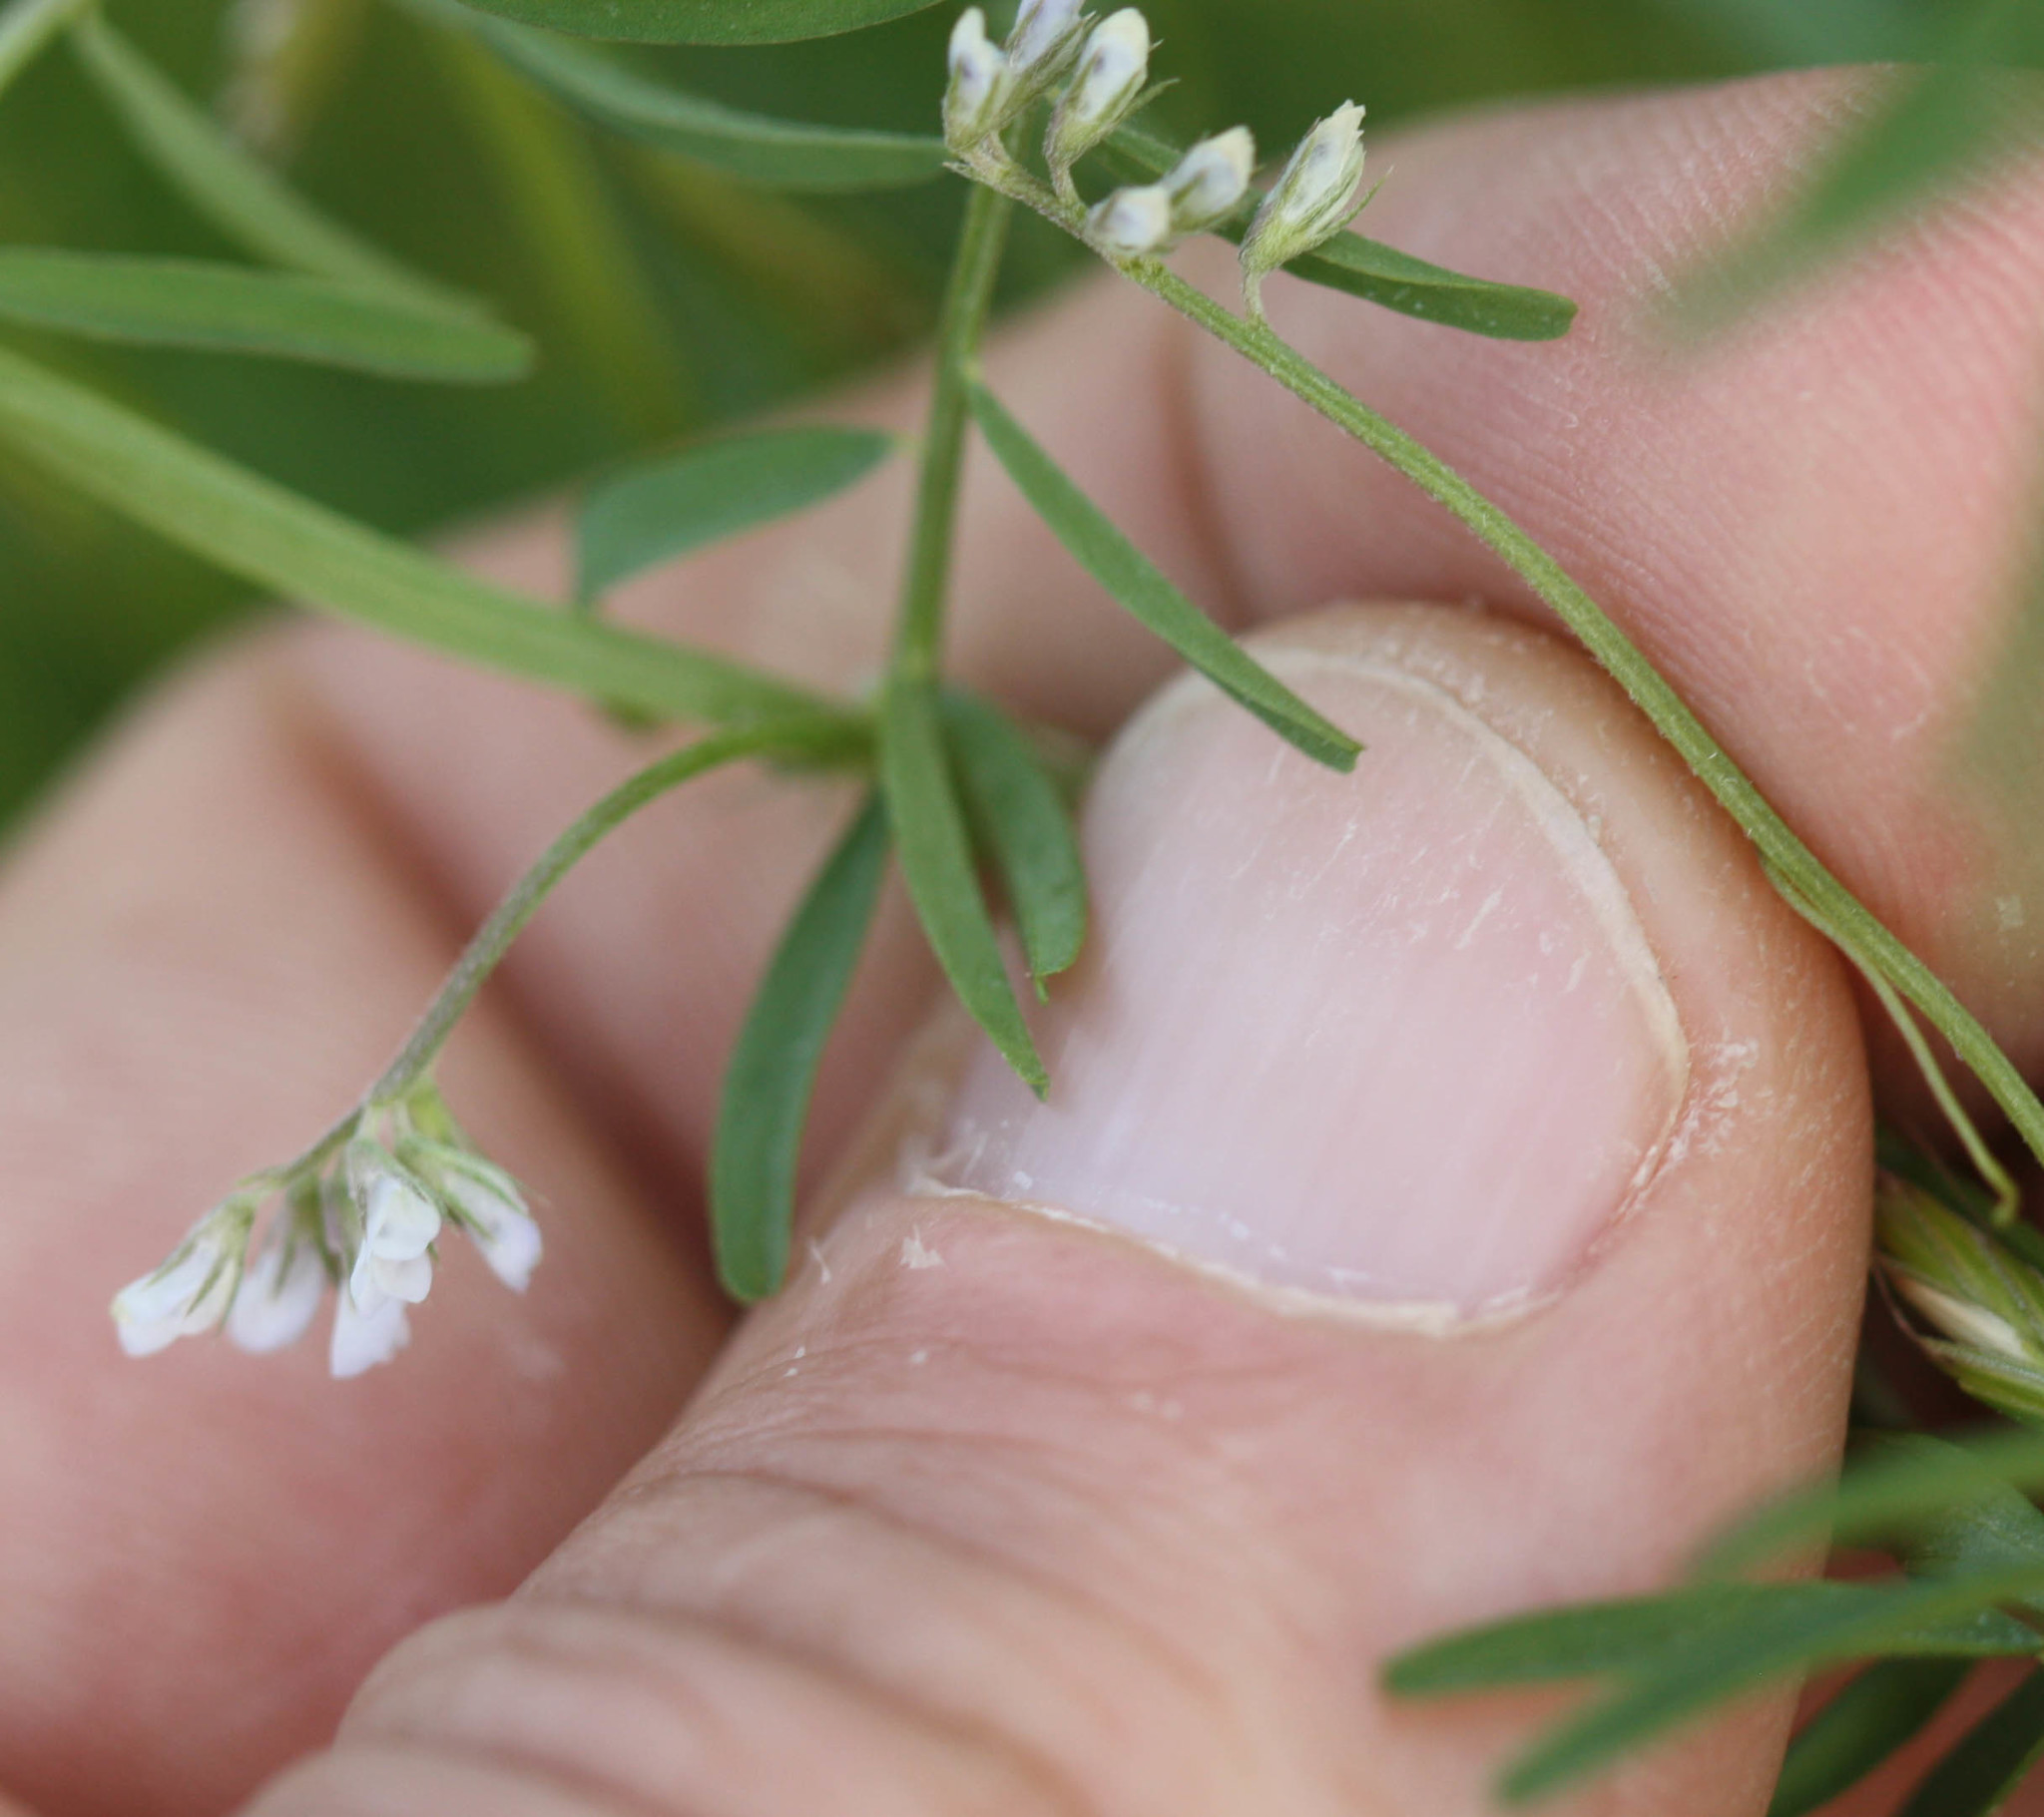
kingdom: Plantae
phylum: Tracheophyta
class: Magnoliopsida
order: Fabales
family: Fabaceae
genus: Vicia
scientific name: Vicia hirsuta
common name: Tiny vetch
